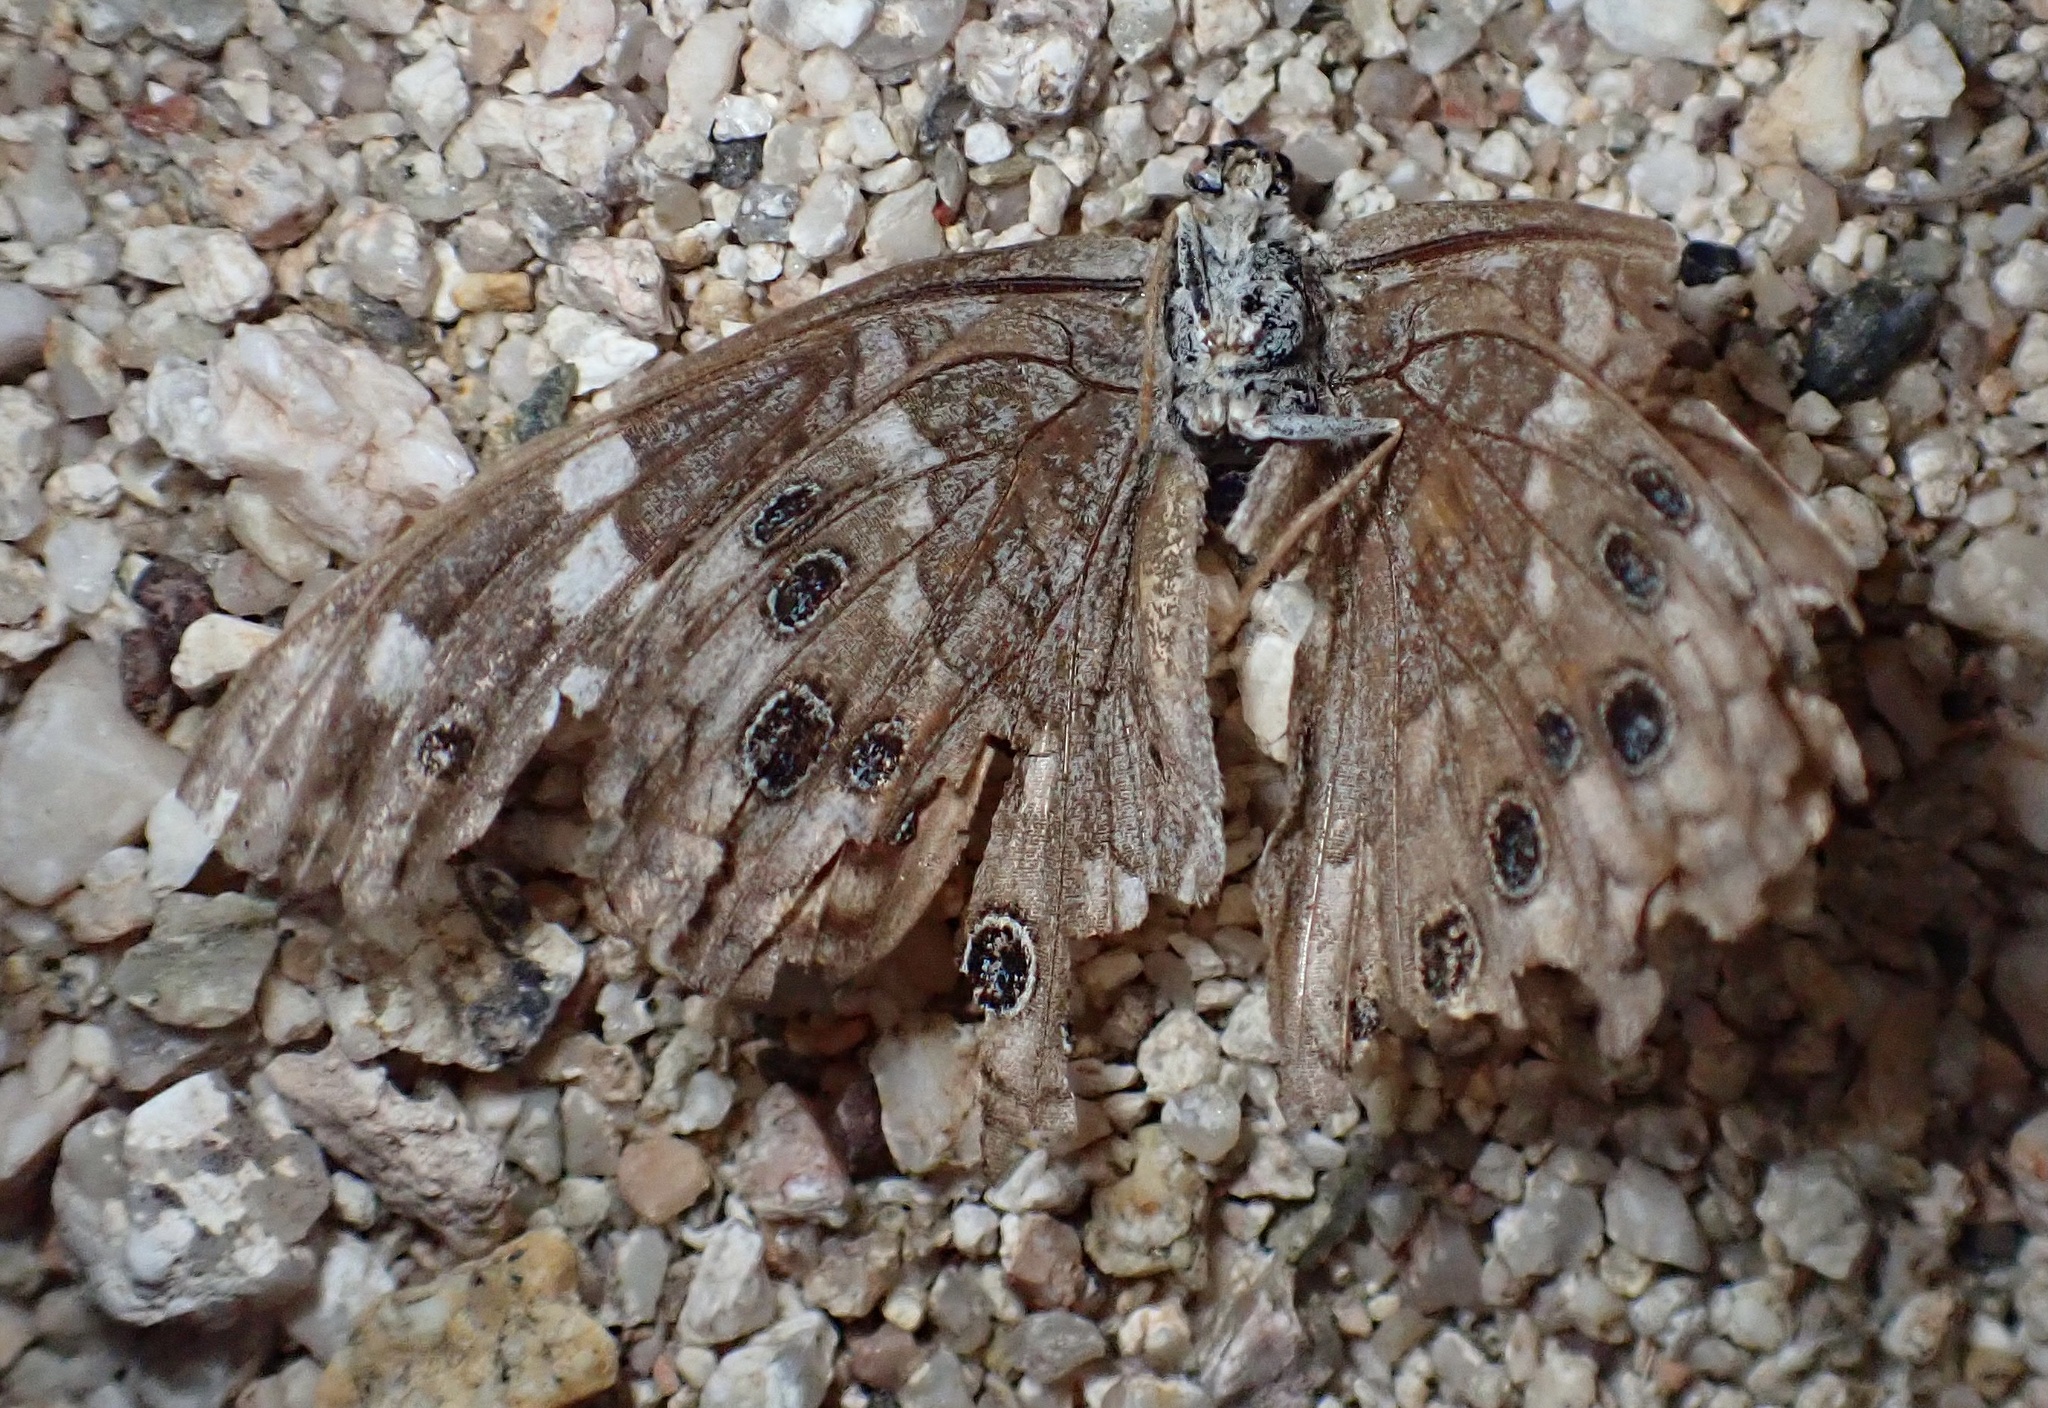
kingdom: Animalia
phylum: Arthropoda
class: Insecta
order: Lepidoptera
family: Nymphalidae
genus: Asterocampa
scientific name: Asterocampa leilia
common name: Empress leilia
